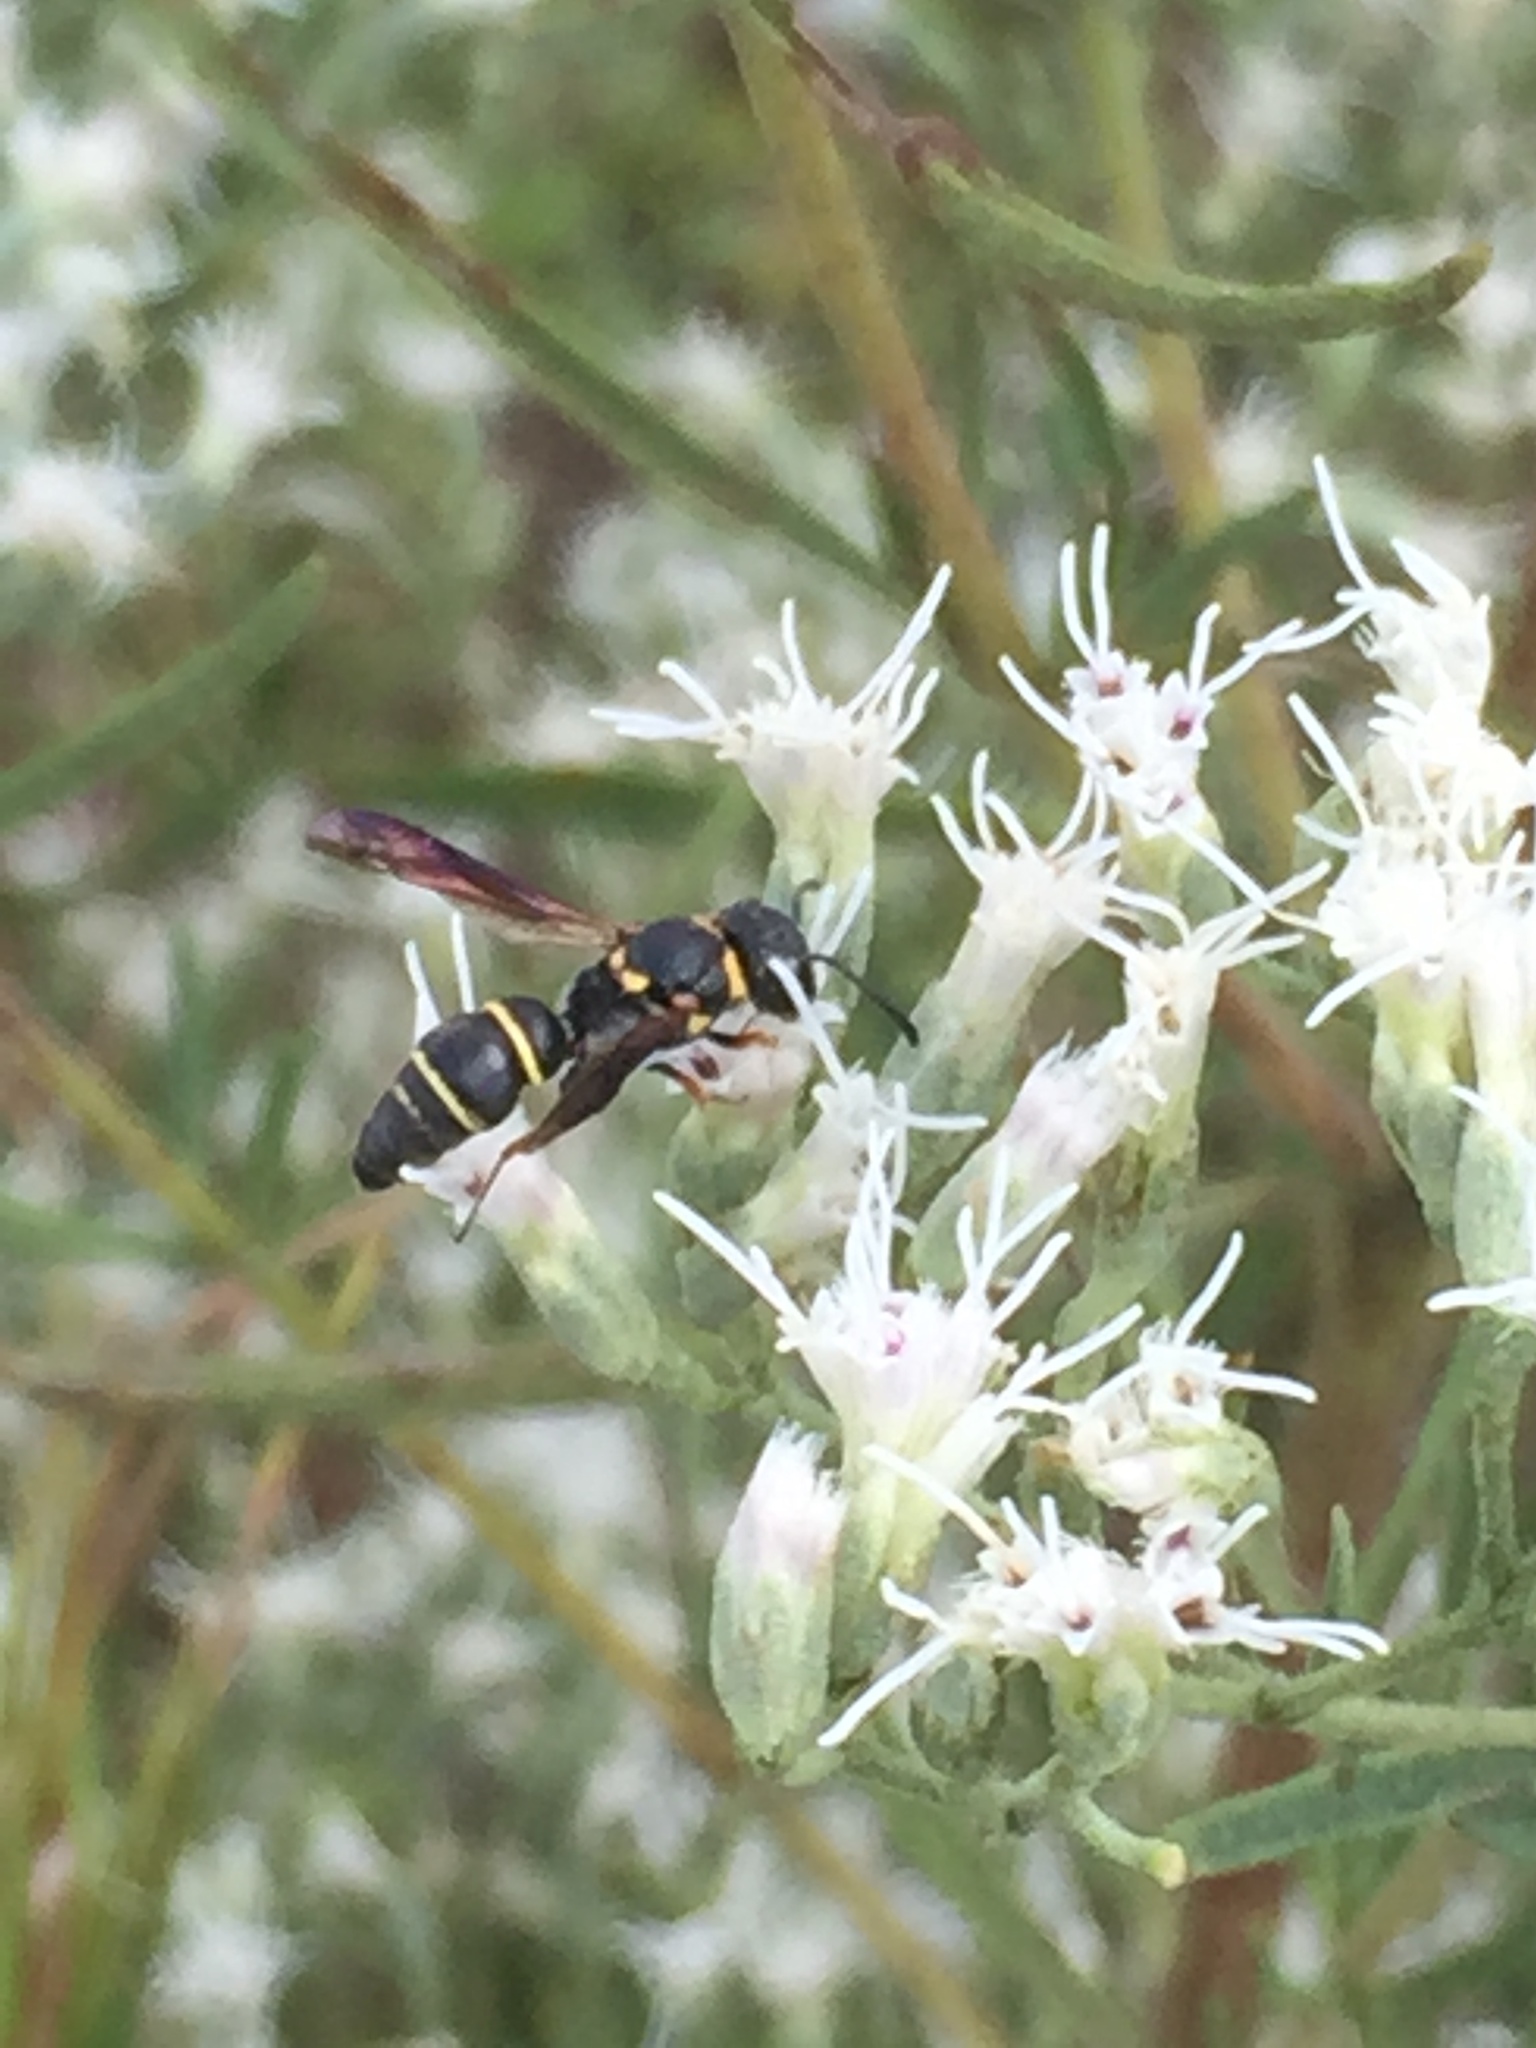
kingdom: Animalia
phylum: Arthropoda
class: Insecta
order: Hymenoptera
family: Eumenidae
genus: Cyrtolabulus
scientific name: Cyrtolabulus mutinensis
